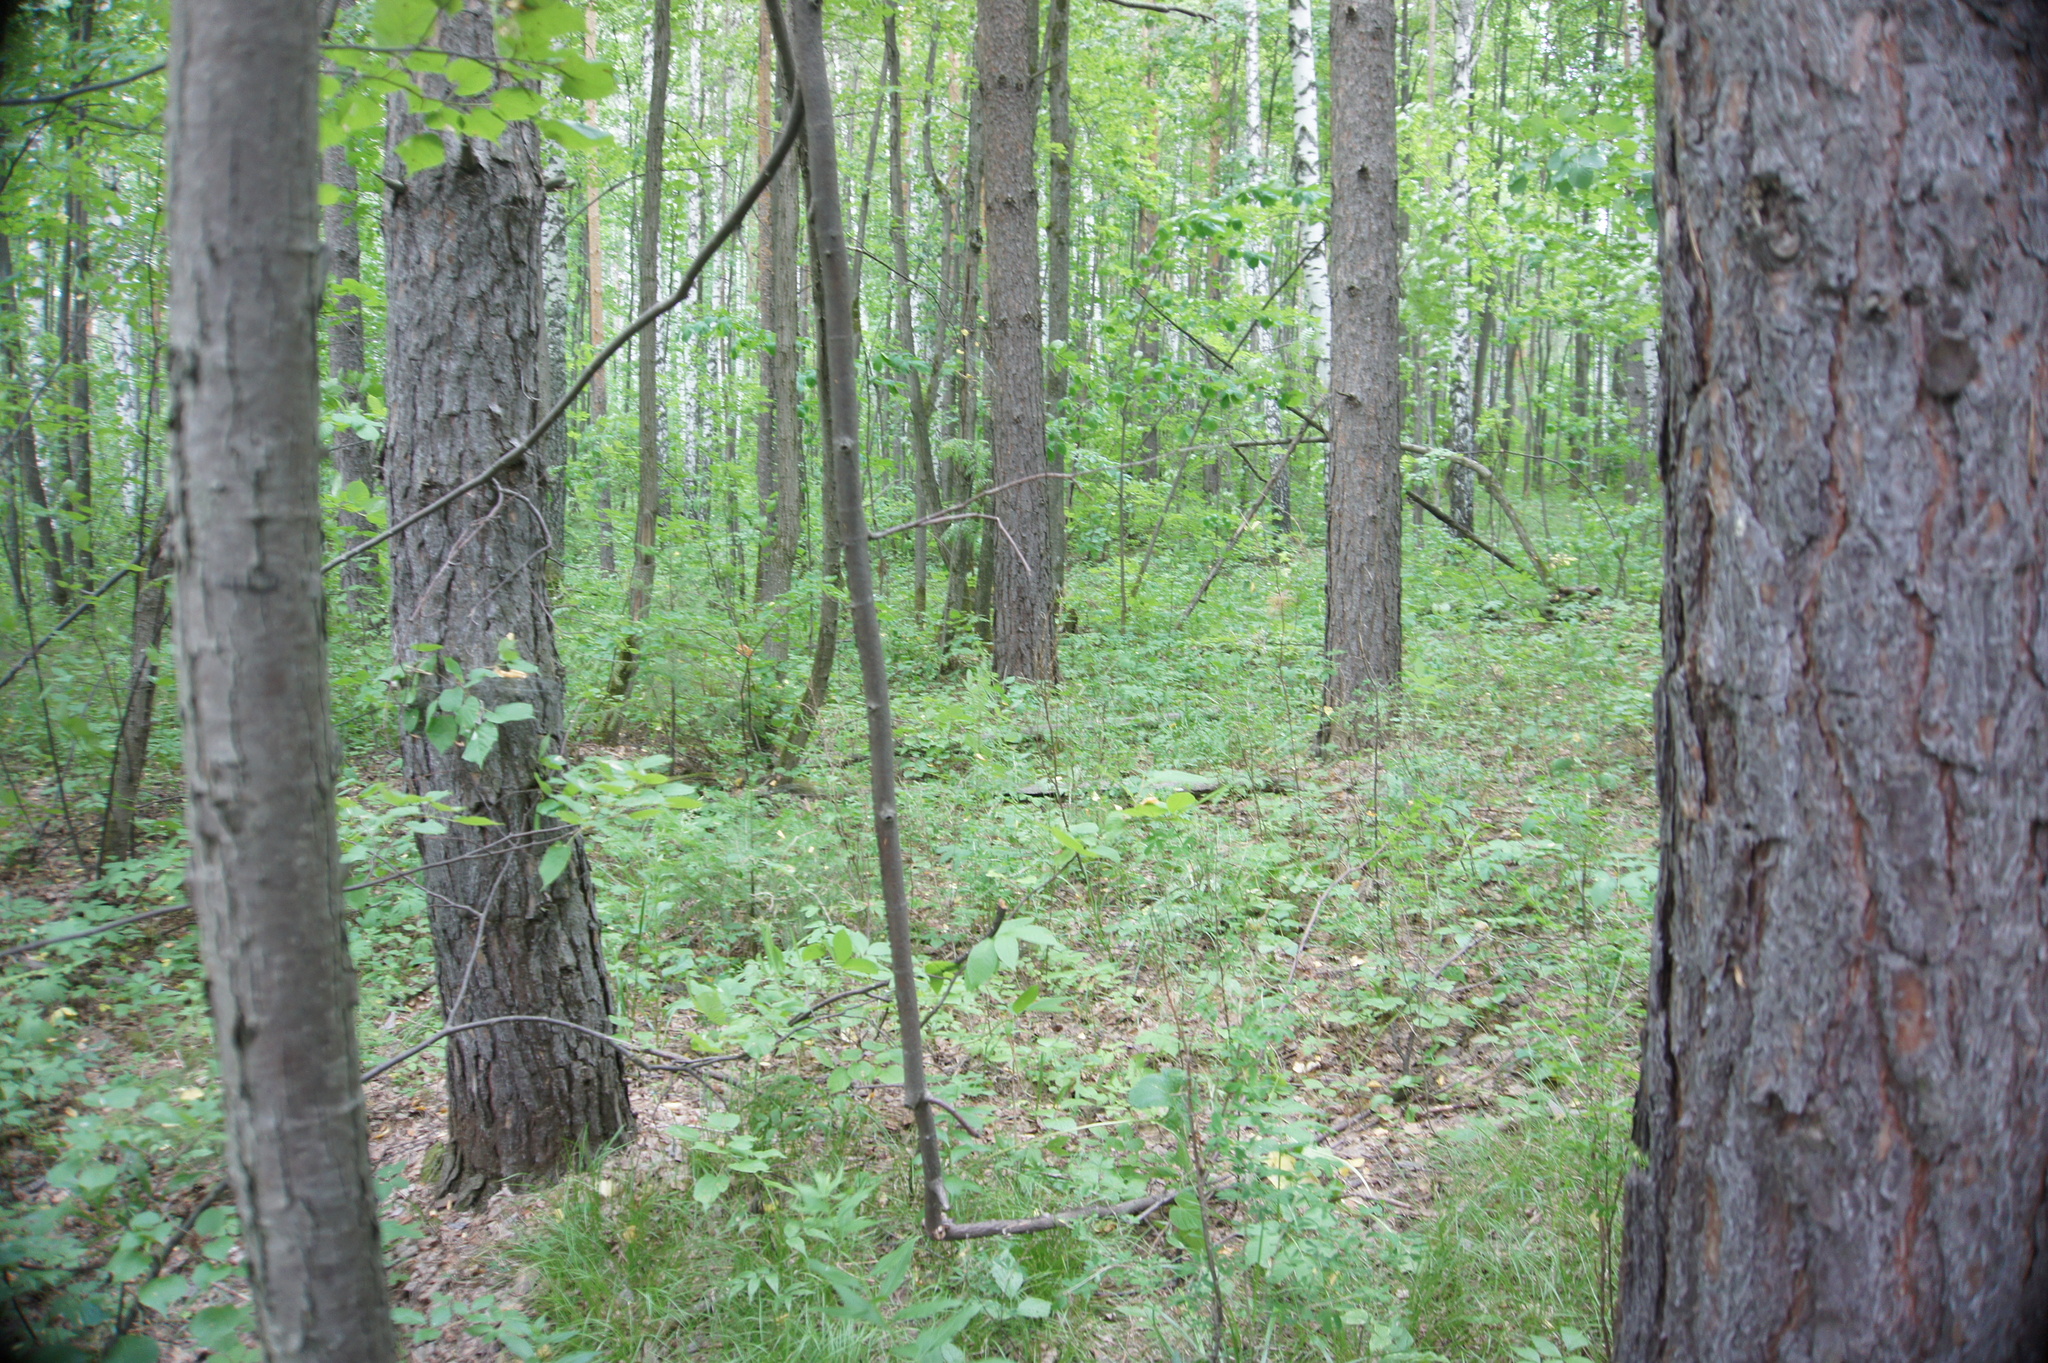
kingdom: Plantae
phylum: Tracheophyta
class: Pinopsida
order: Pinales
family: Pinaceae
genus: Pinus
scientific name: Pinus sylvestris
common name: Scots pine
